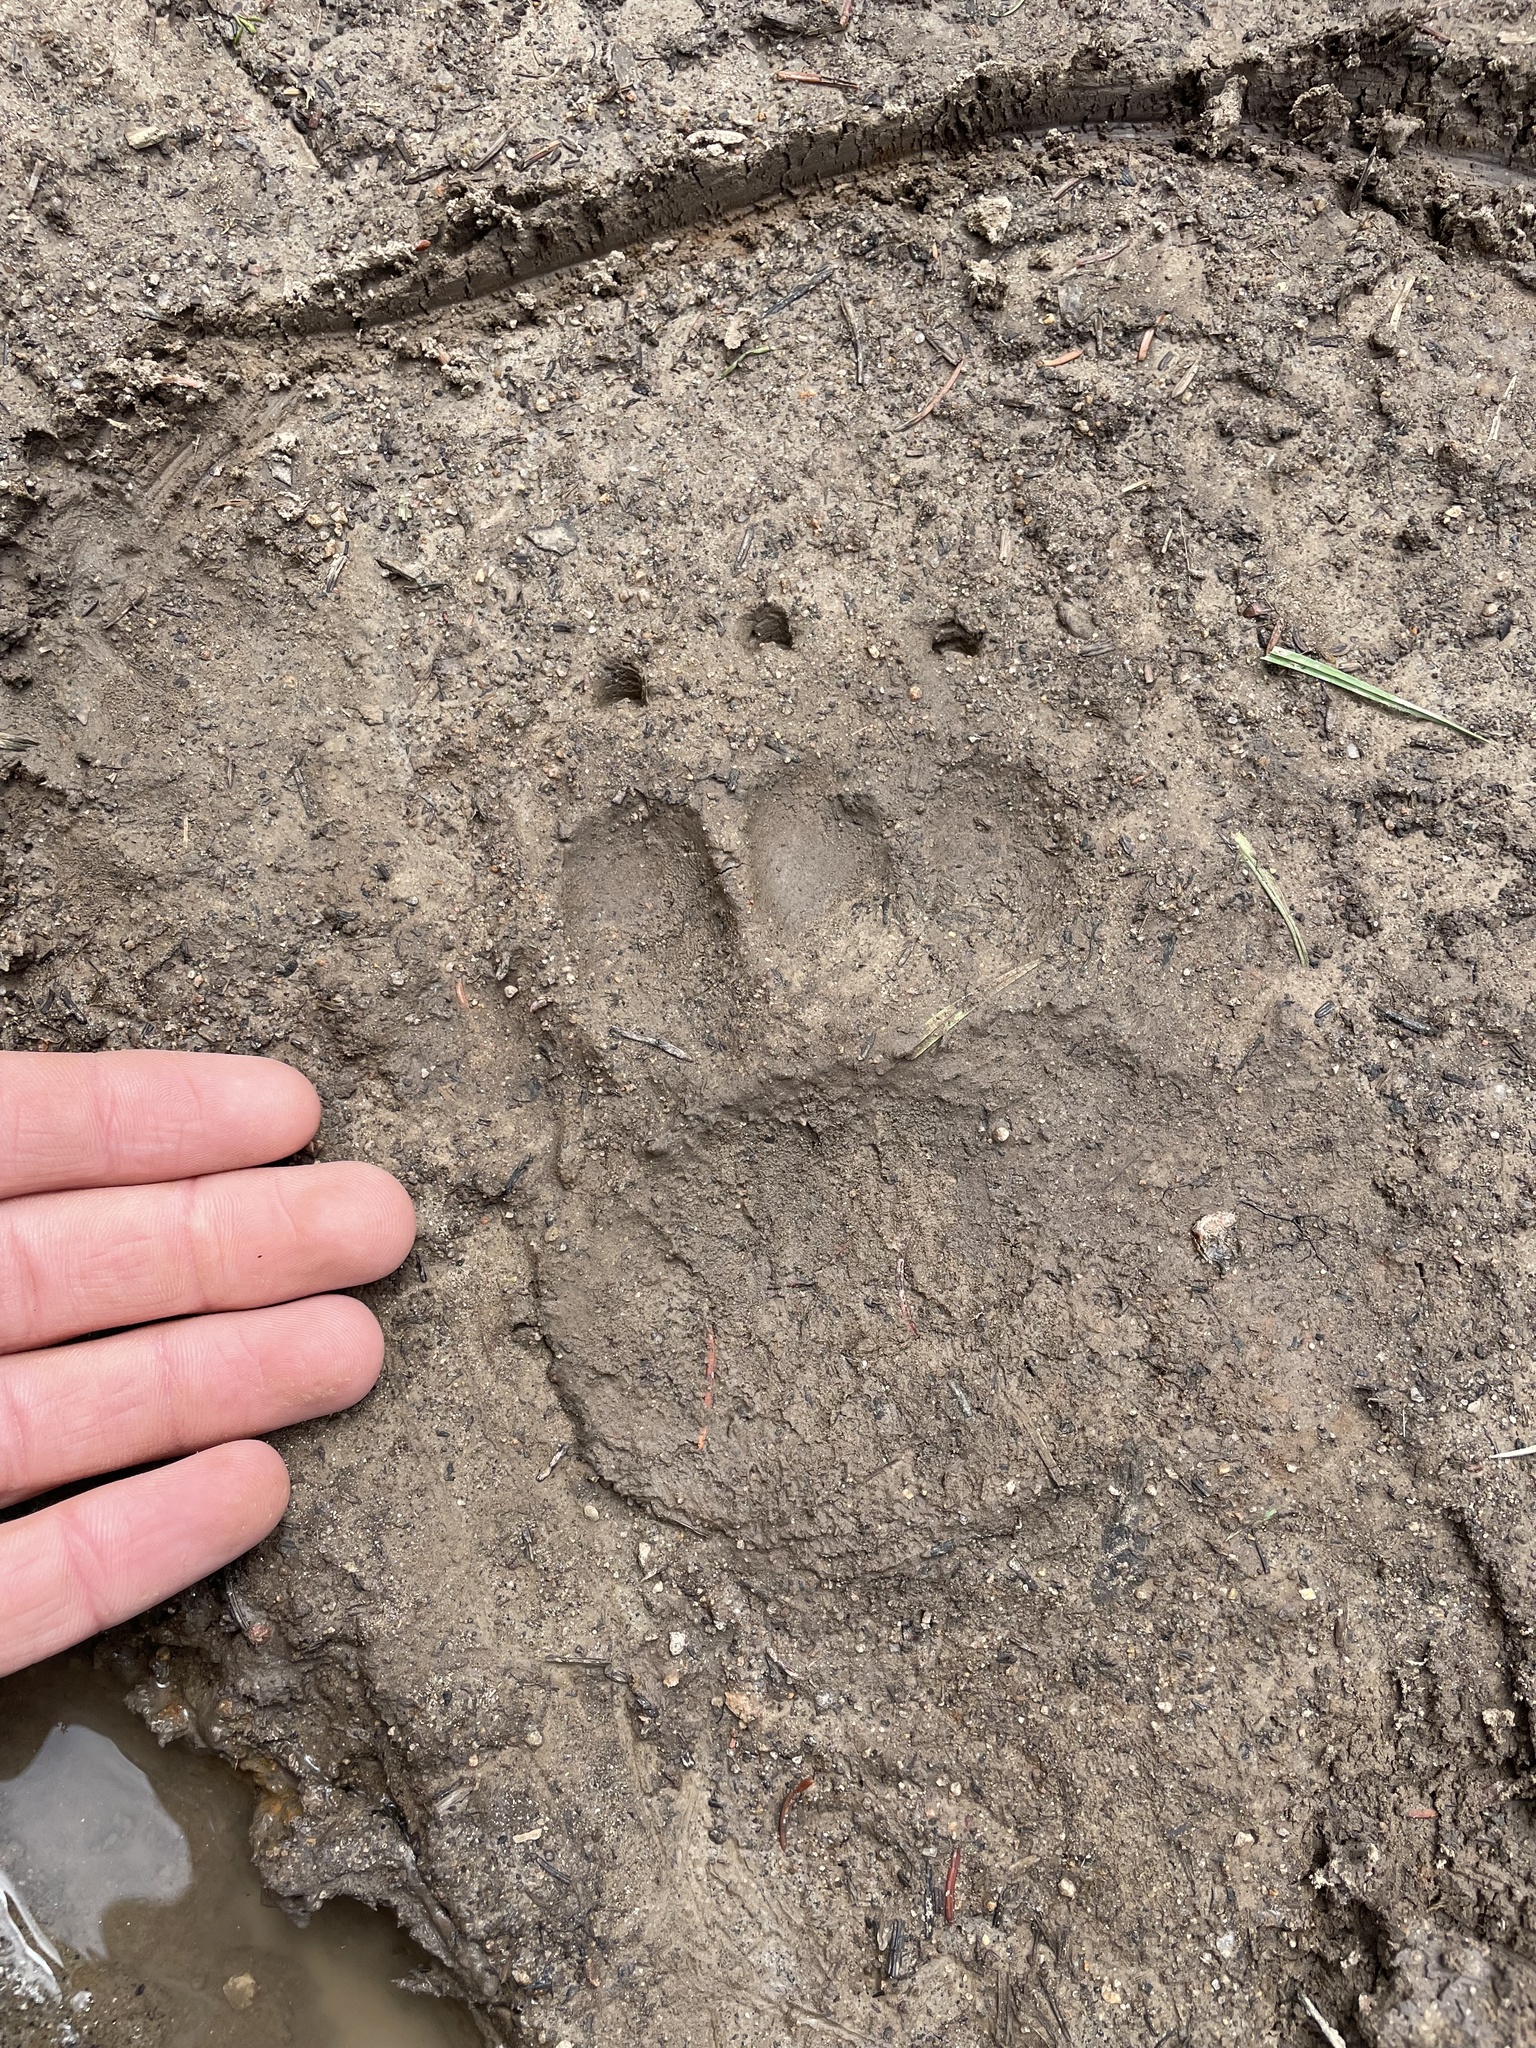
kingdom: Animalia
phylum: Chordata
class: Mammalia
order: Carnivora
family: Ursidae
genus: Ursus
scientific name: Ursus americanus
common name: American black bear
